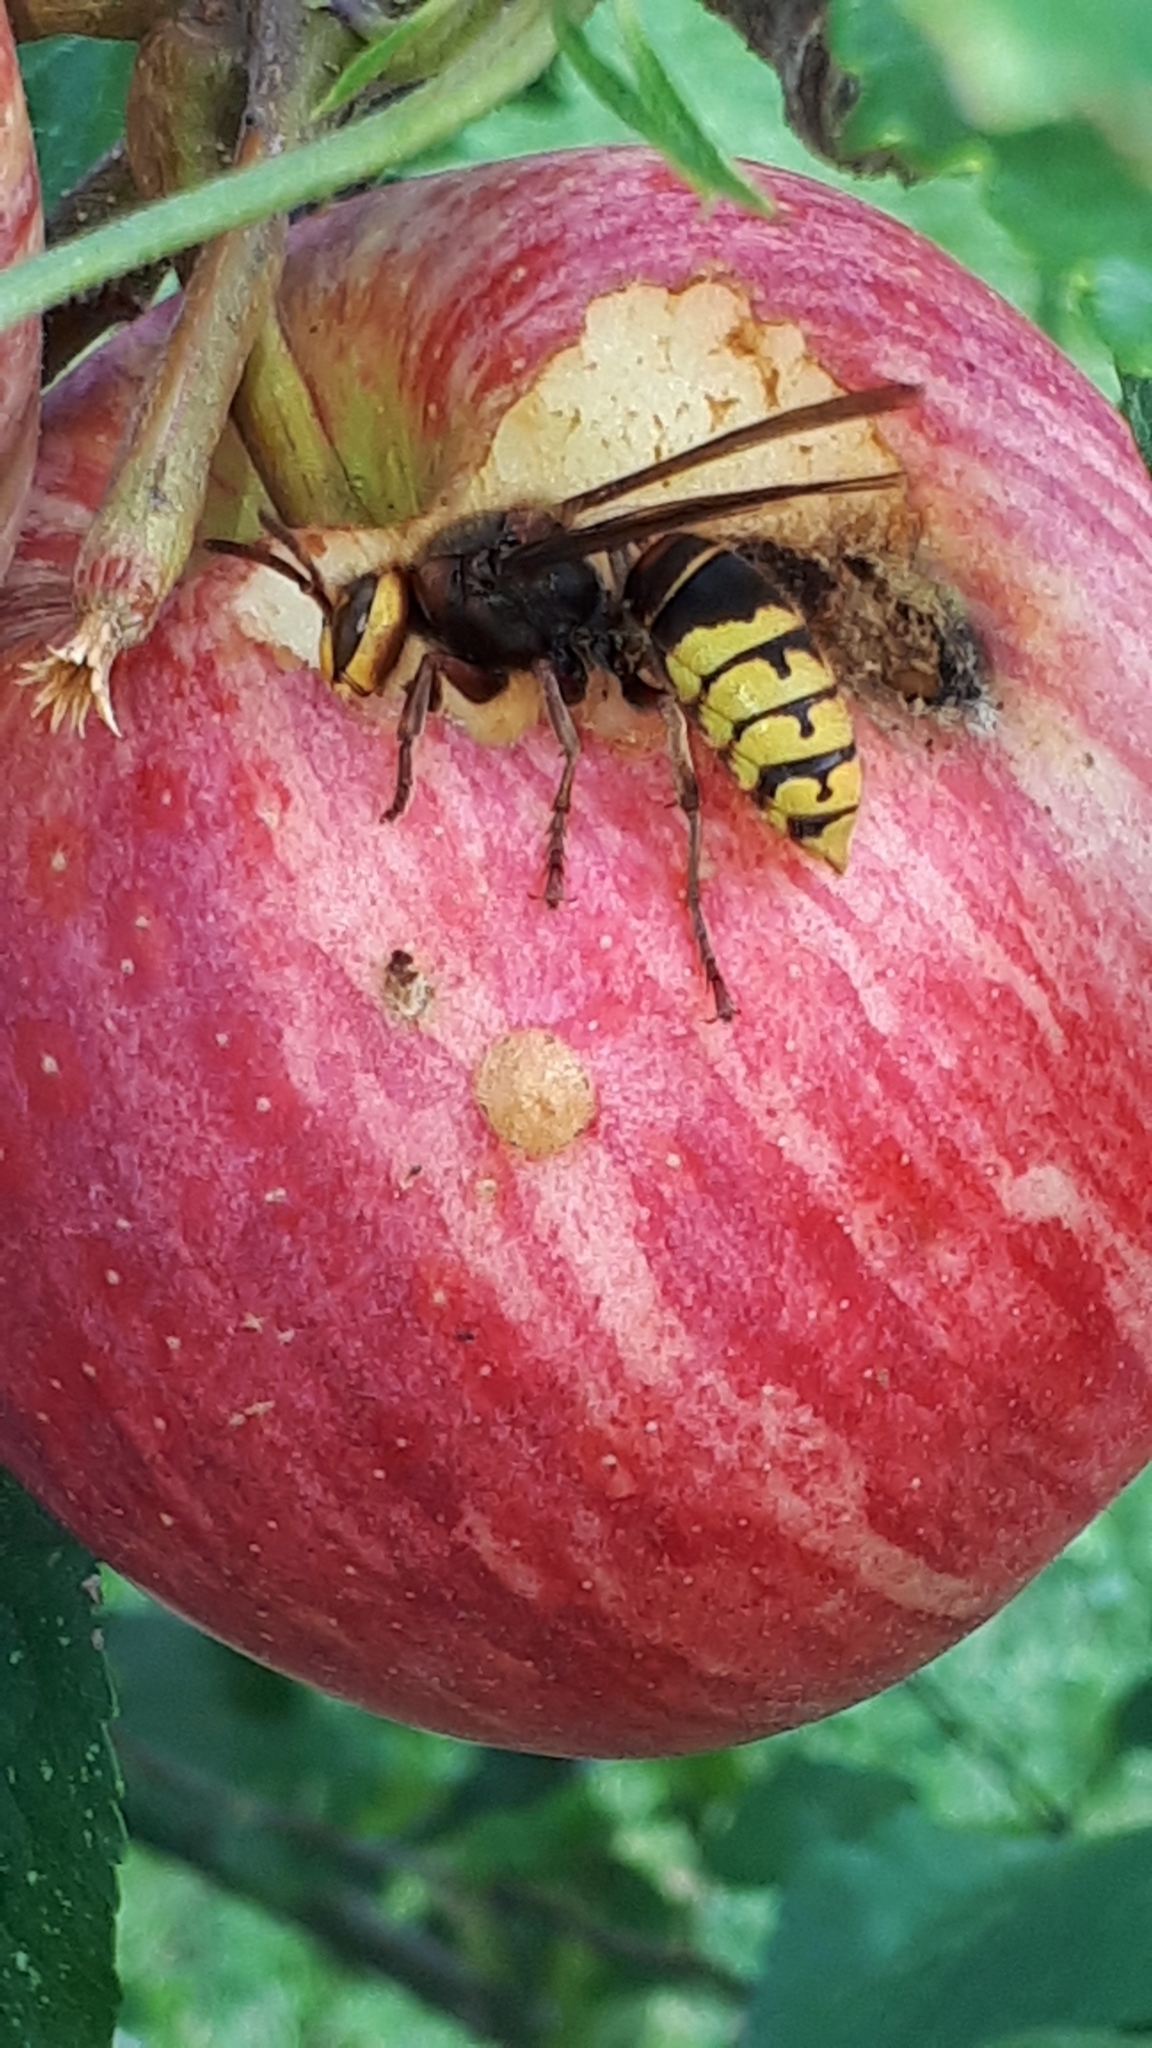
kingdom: Animalia
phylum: Arthropoda
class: Insecta
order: Hymenoptera
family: Vespidae
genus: Vespa
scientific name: Vespa crabro
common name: Hornet
